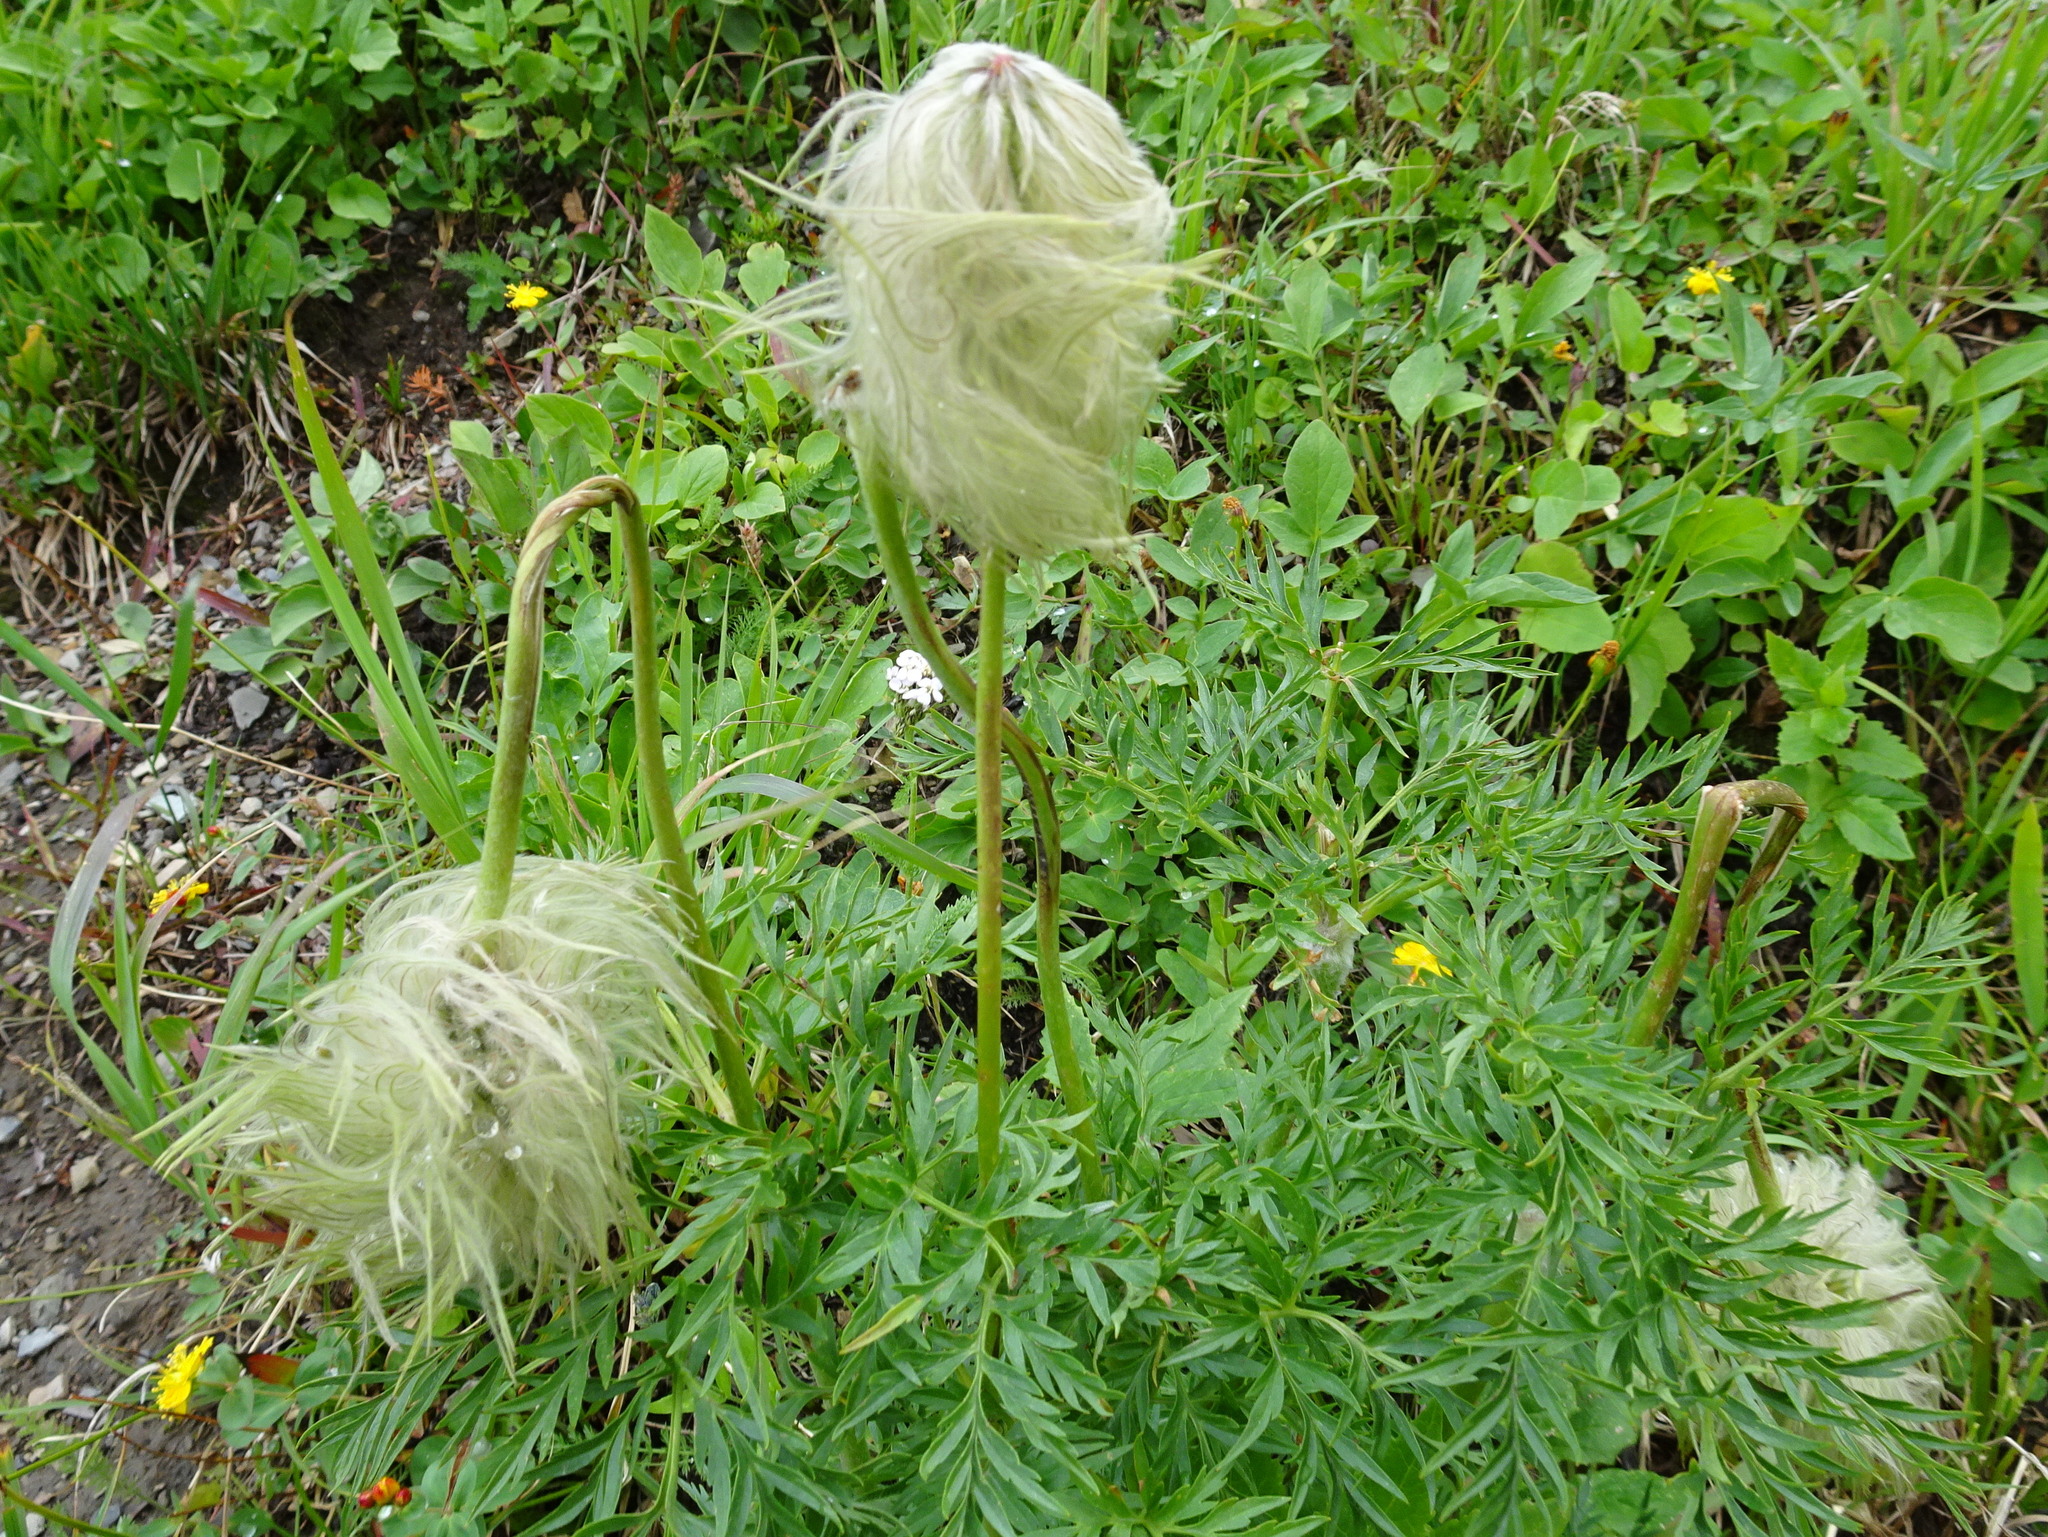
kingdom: Plantae
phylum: Tracheophyta
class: Magnoliopsida
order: Ranunculales
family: Ranunculaceae
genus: Pulsatilla
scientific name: Pulsatilla occidentalis
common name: Mountain pasqueflower
